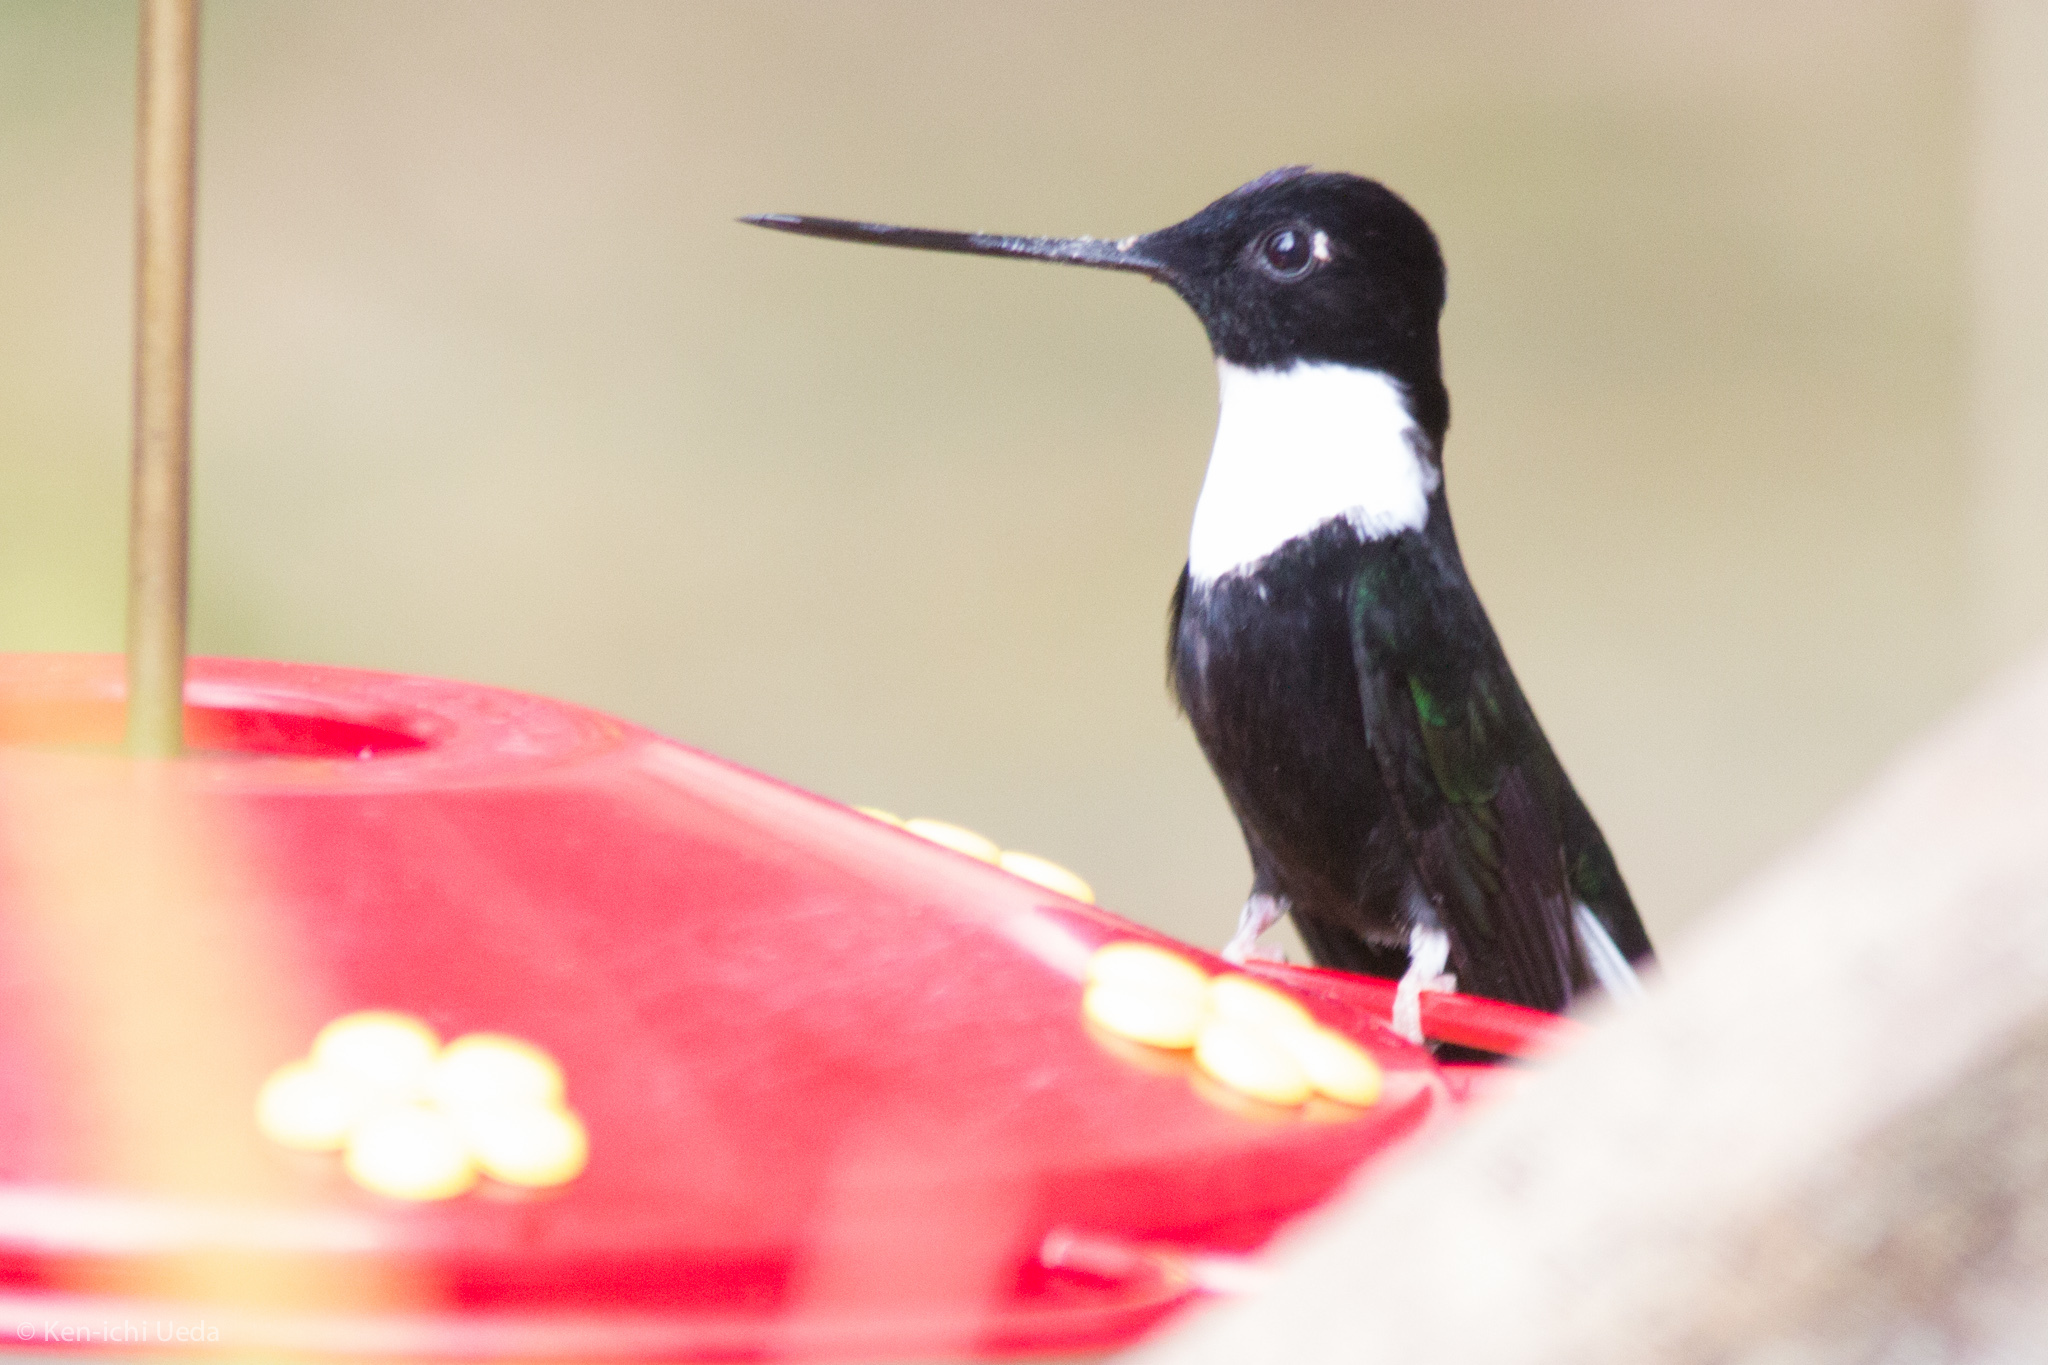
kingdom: Animalia
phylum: Chordata
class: Aves
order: Apodiformes
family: Trochilidae
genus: Coeligena
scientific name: Coeligena torquata
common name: Collared inca
